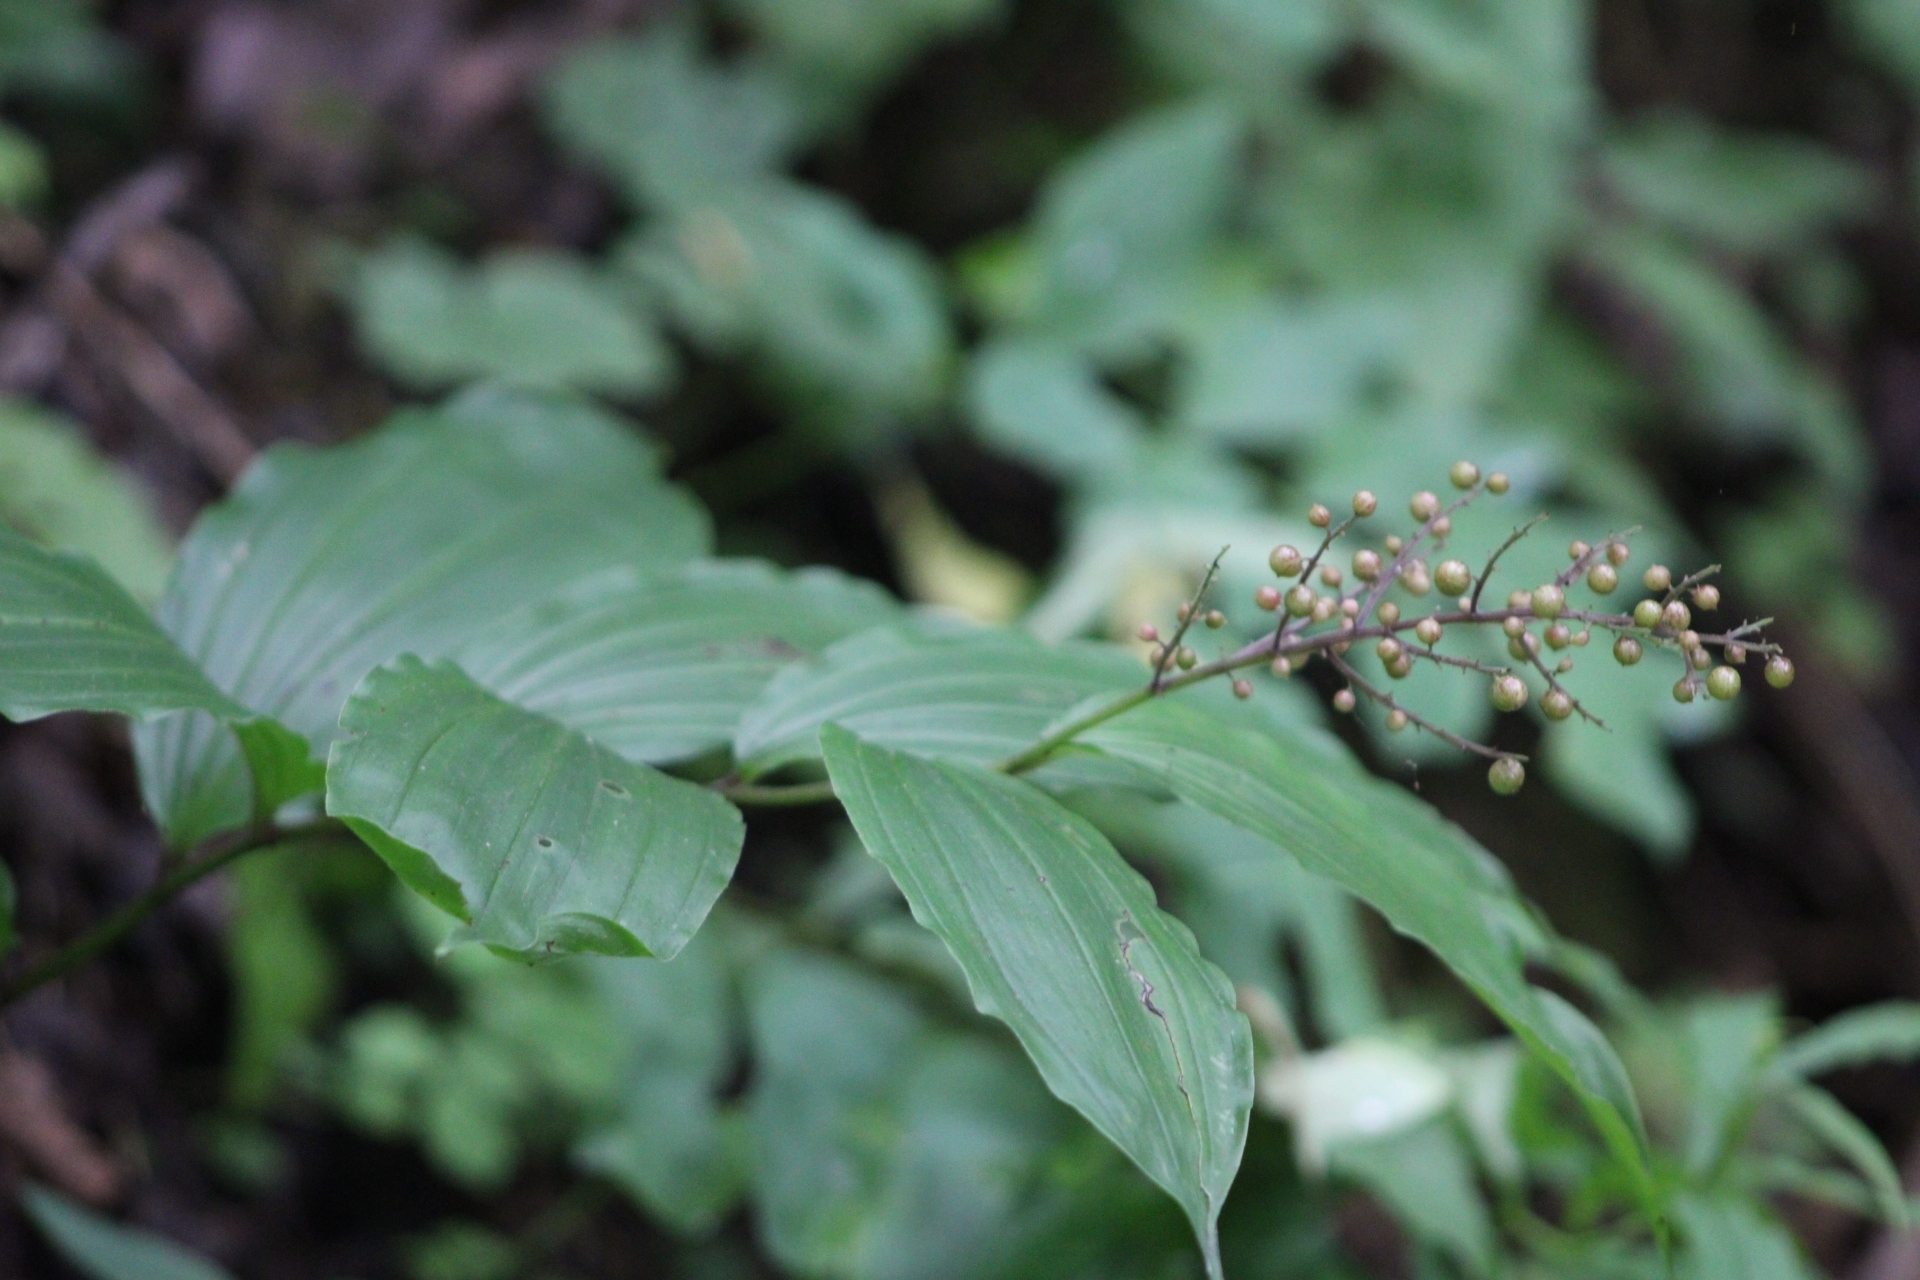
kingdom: Plantae
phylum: Tracheophyta
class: Liliopsida
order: Asparagales
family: Asparagaceae
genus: Maianthemum
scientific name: Maianthemum racemosum
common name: False spikenard
